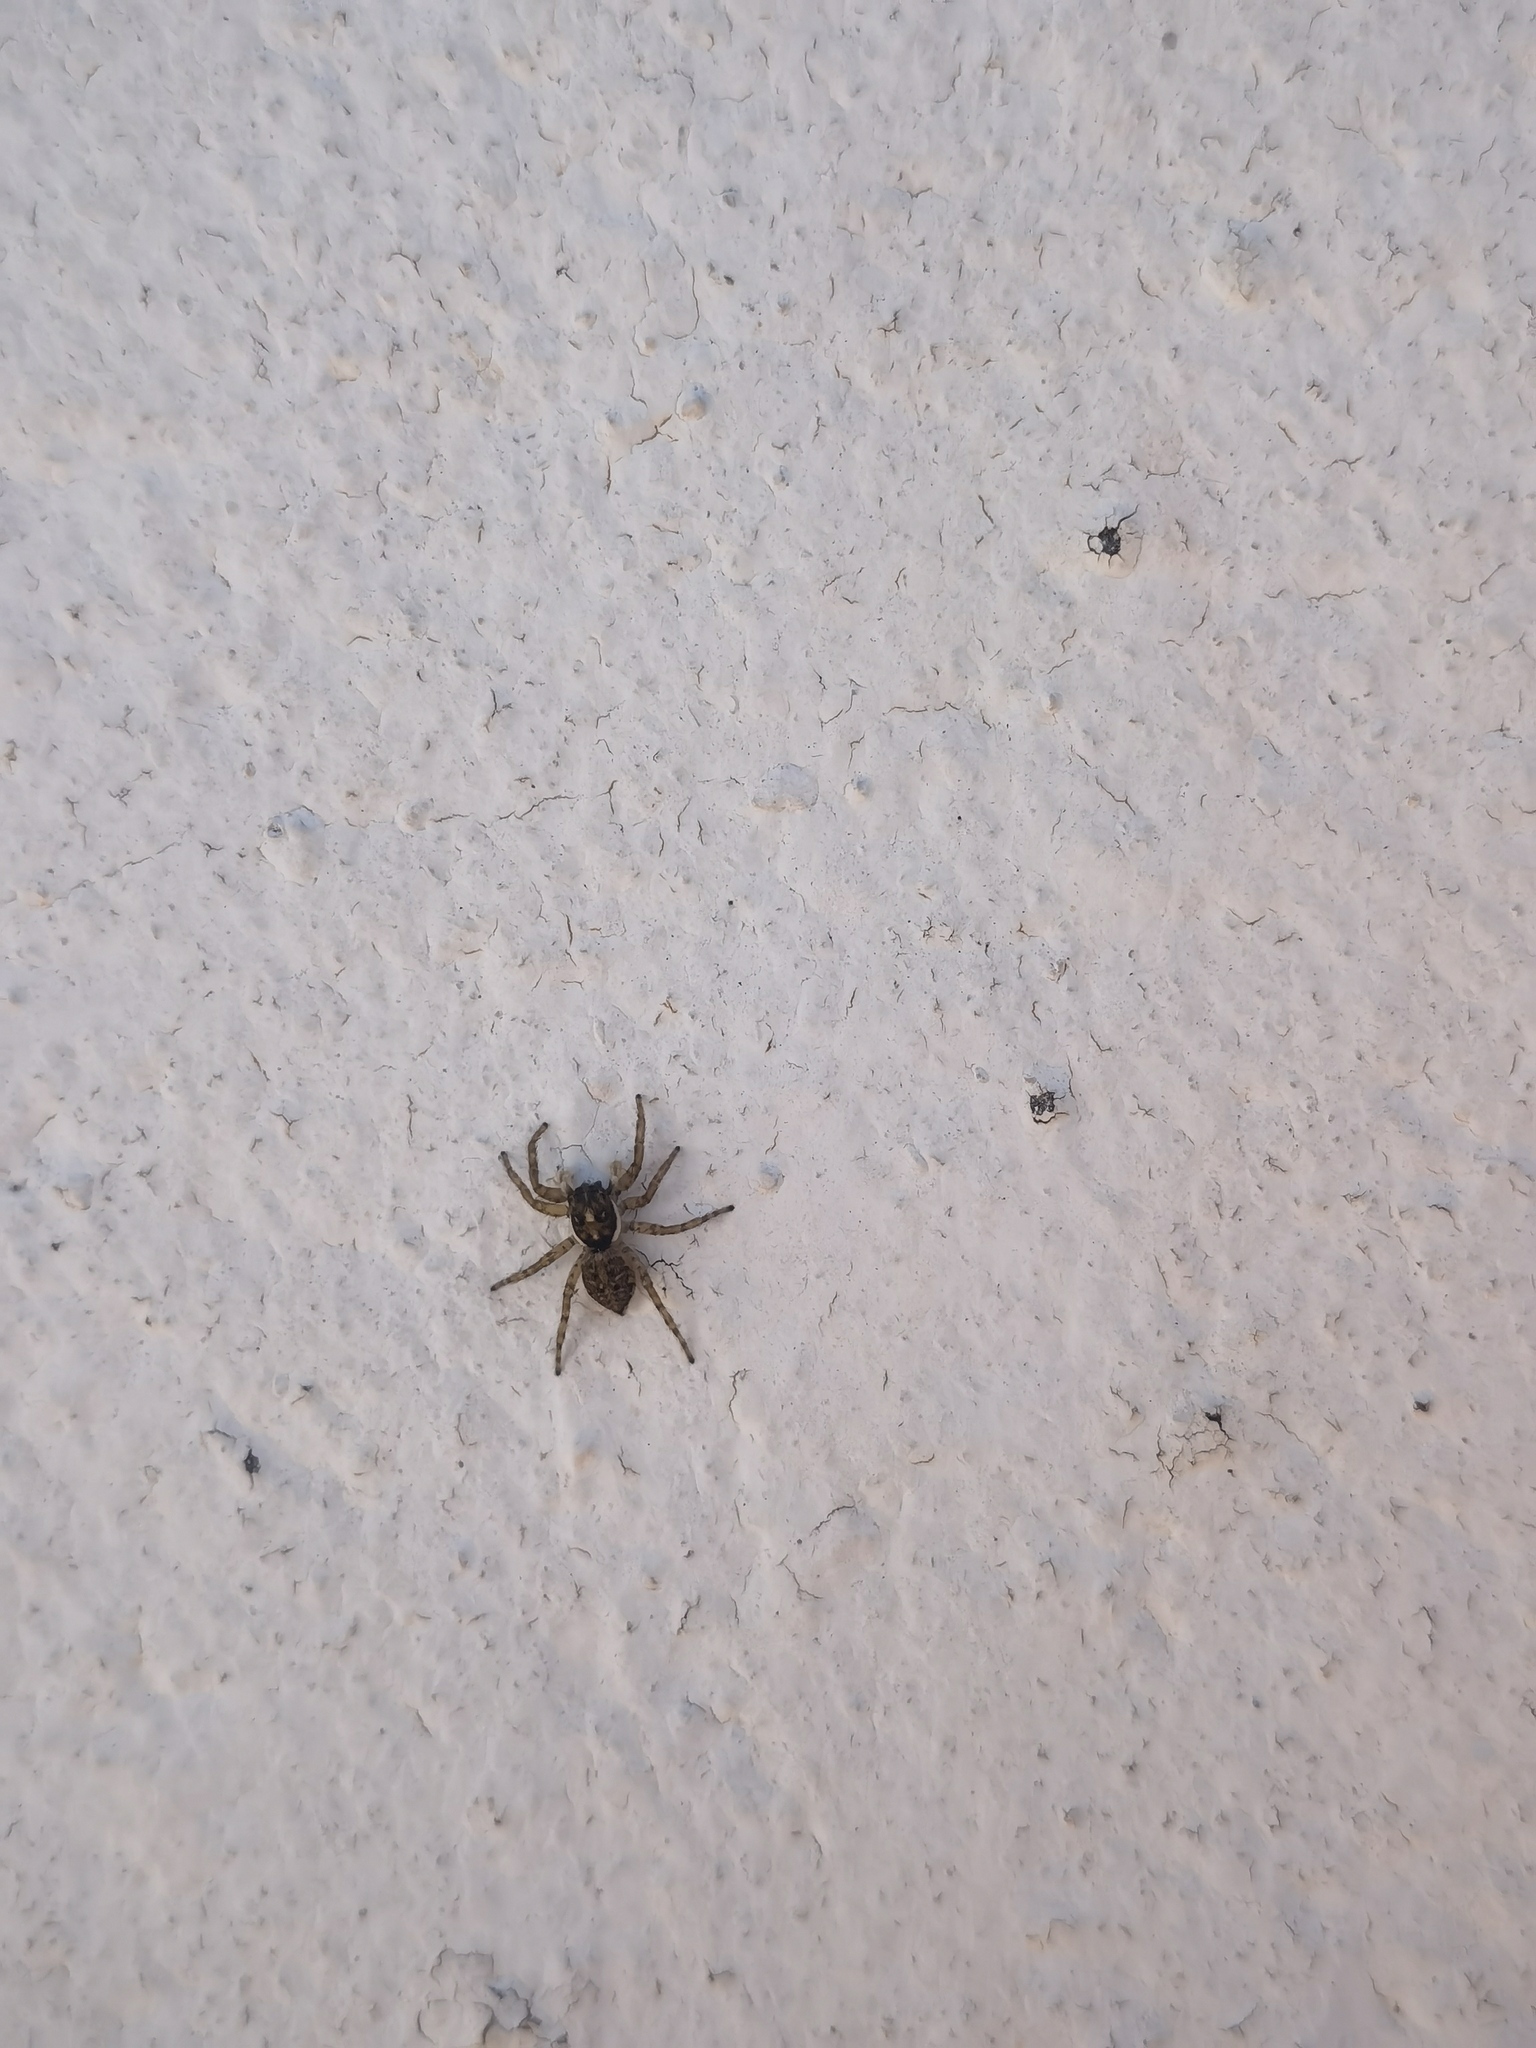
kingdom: Animalia
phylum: Arthropoda
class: Arachnida
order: Araneae
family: Salticidae
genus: Menemerus
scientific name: Menemerus semilimbatus
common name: Jumping spider
